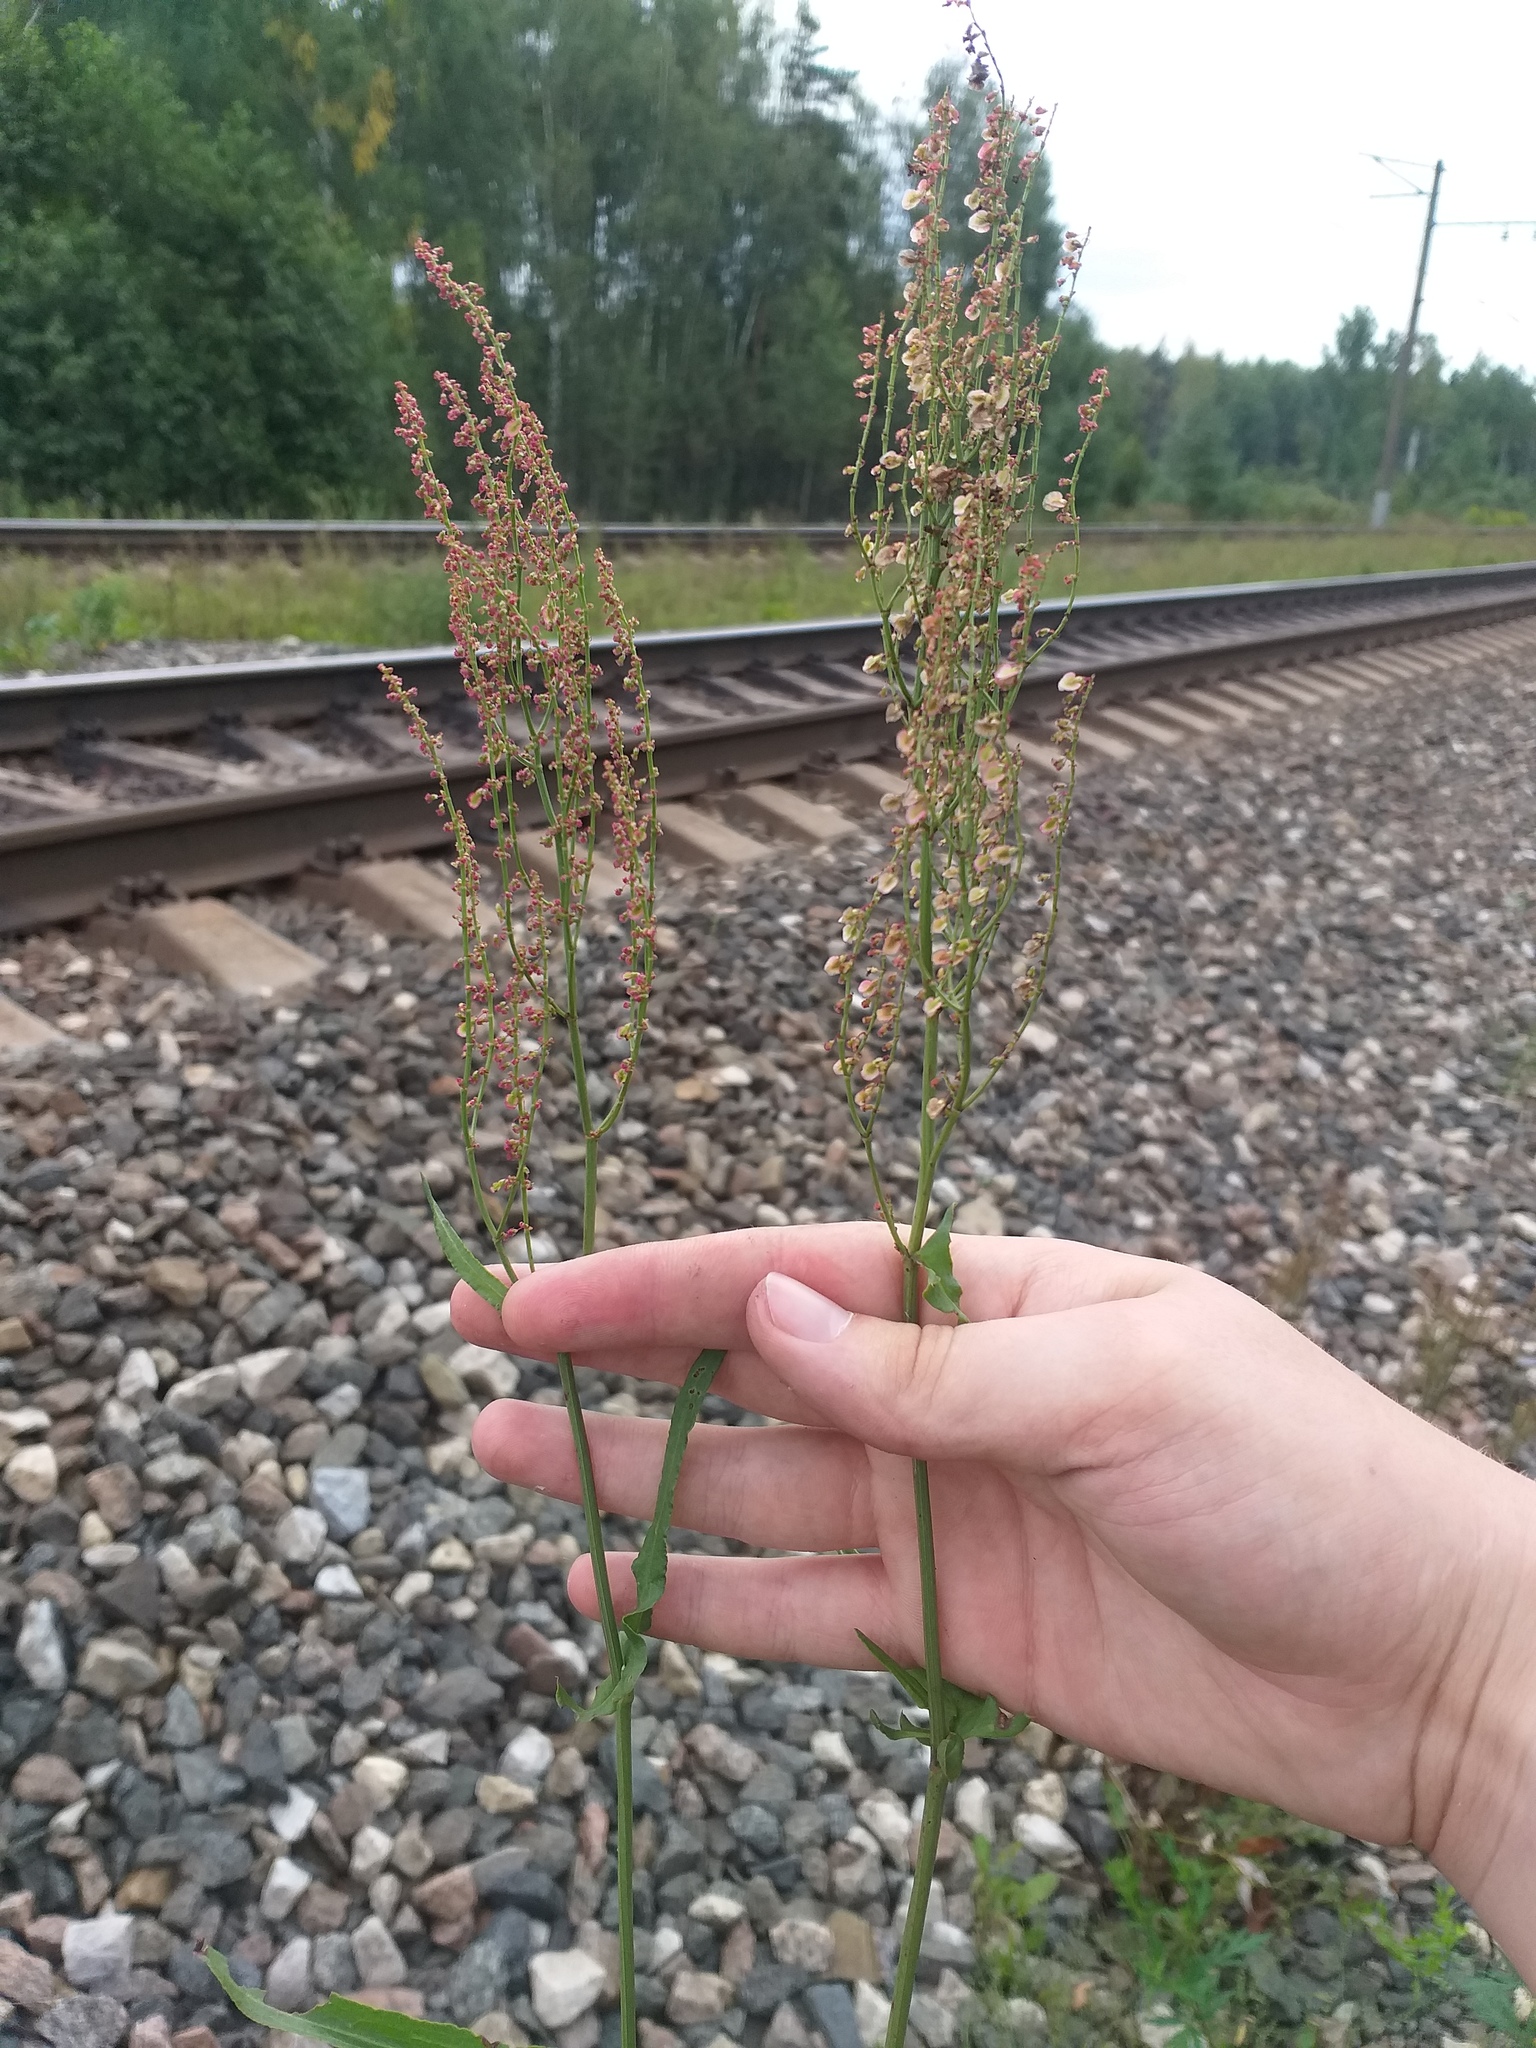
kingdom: Plantae
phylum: Tracheophyta
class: Magnoliopsida
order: Caryophyllales
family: Polygonaceae
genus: Rumex
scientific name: Rumex thyrsiflorus
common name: Garden sorrel
